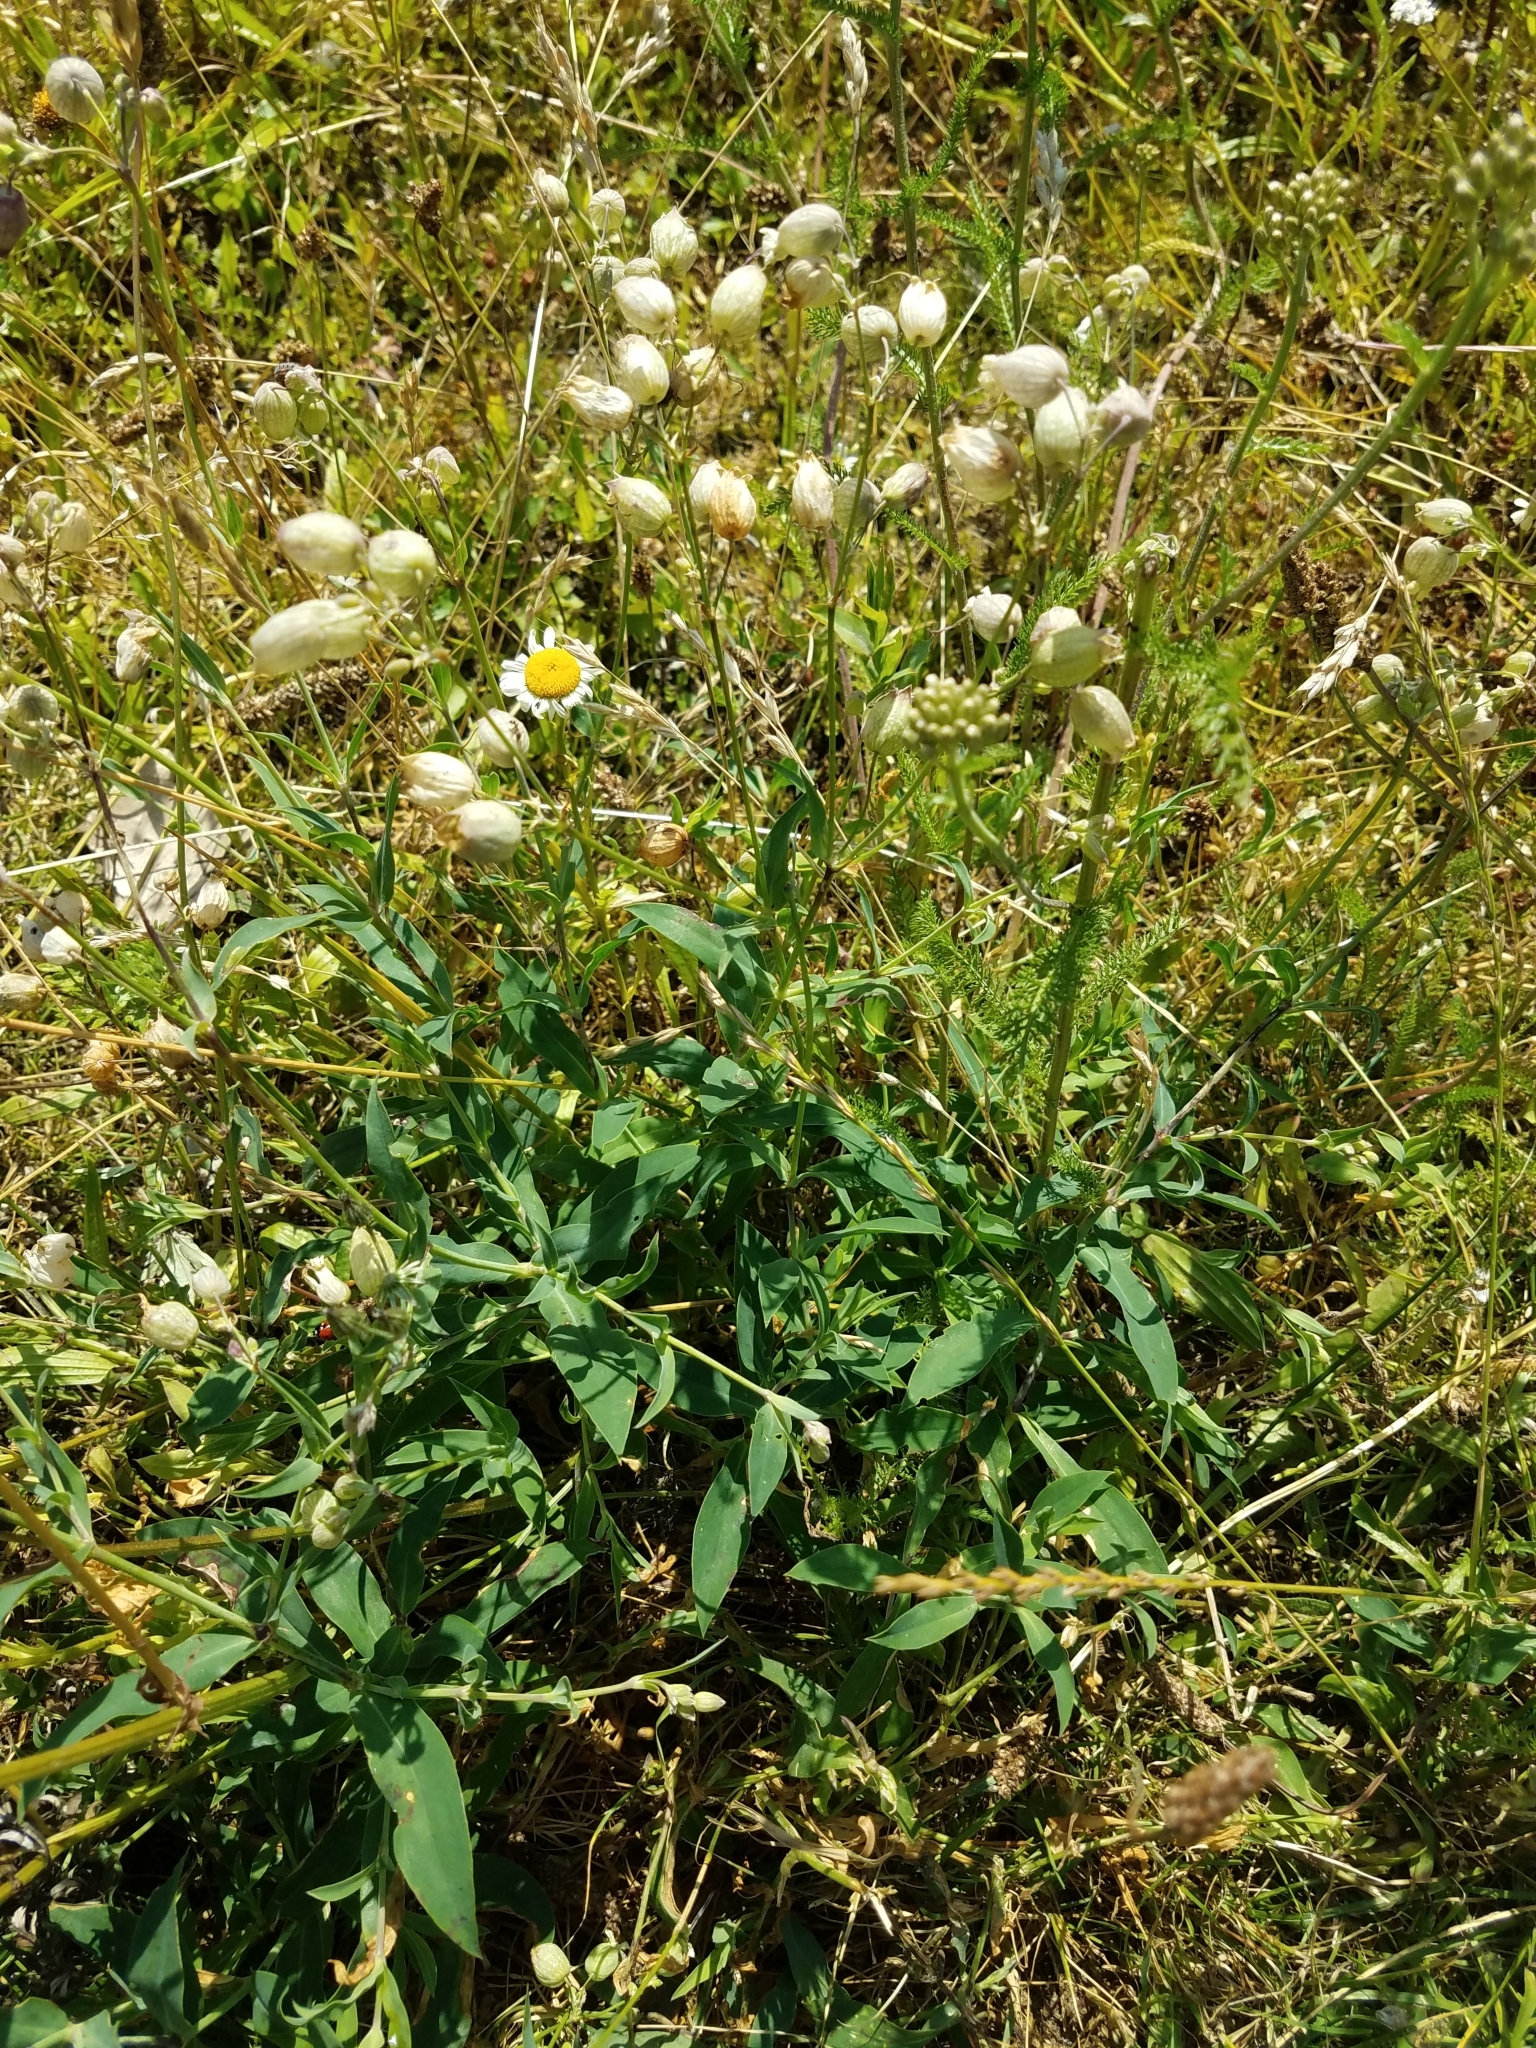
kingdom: Plantae
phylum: Tracheophyta
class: Magnoliopsida
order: Caryophyllales
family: Caryophyllaceae
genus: Silene
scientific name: Silene vulgaris
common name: Bladder campion
